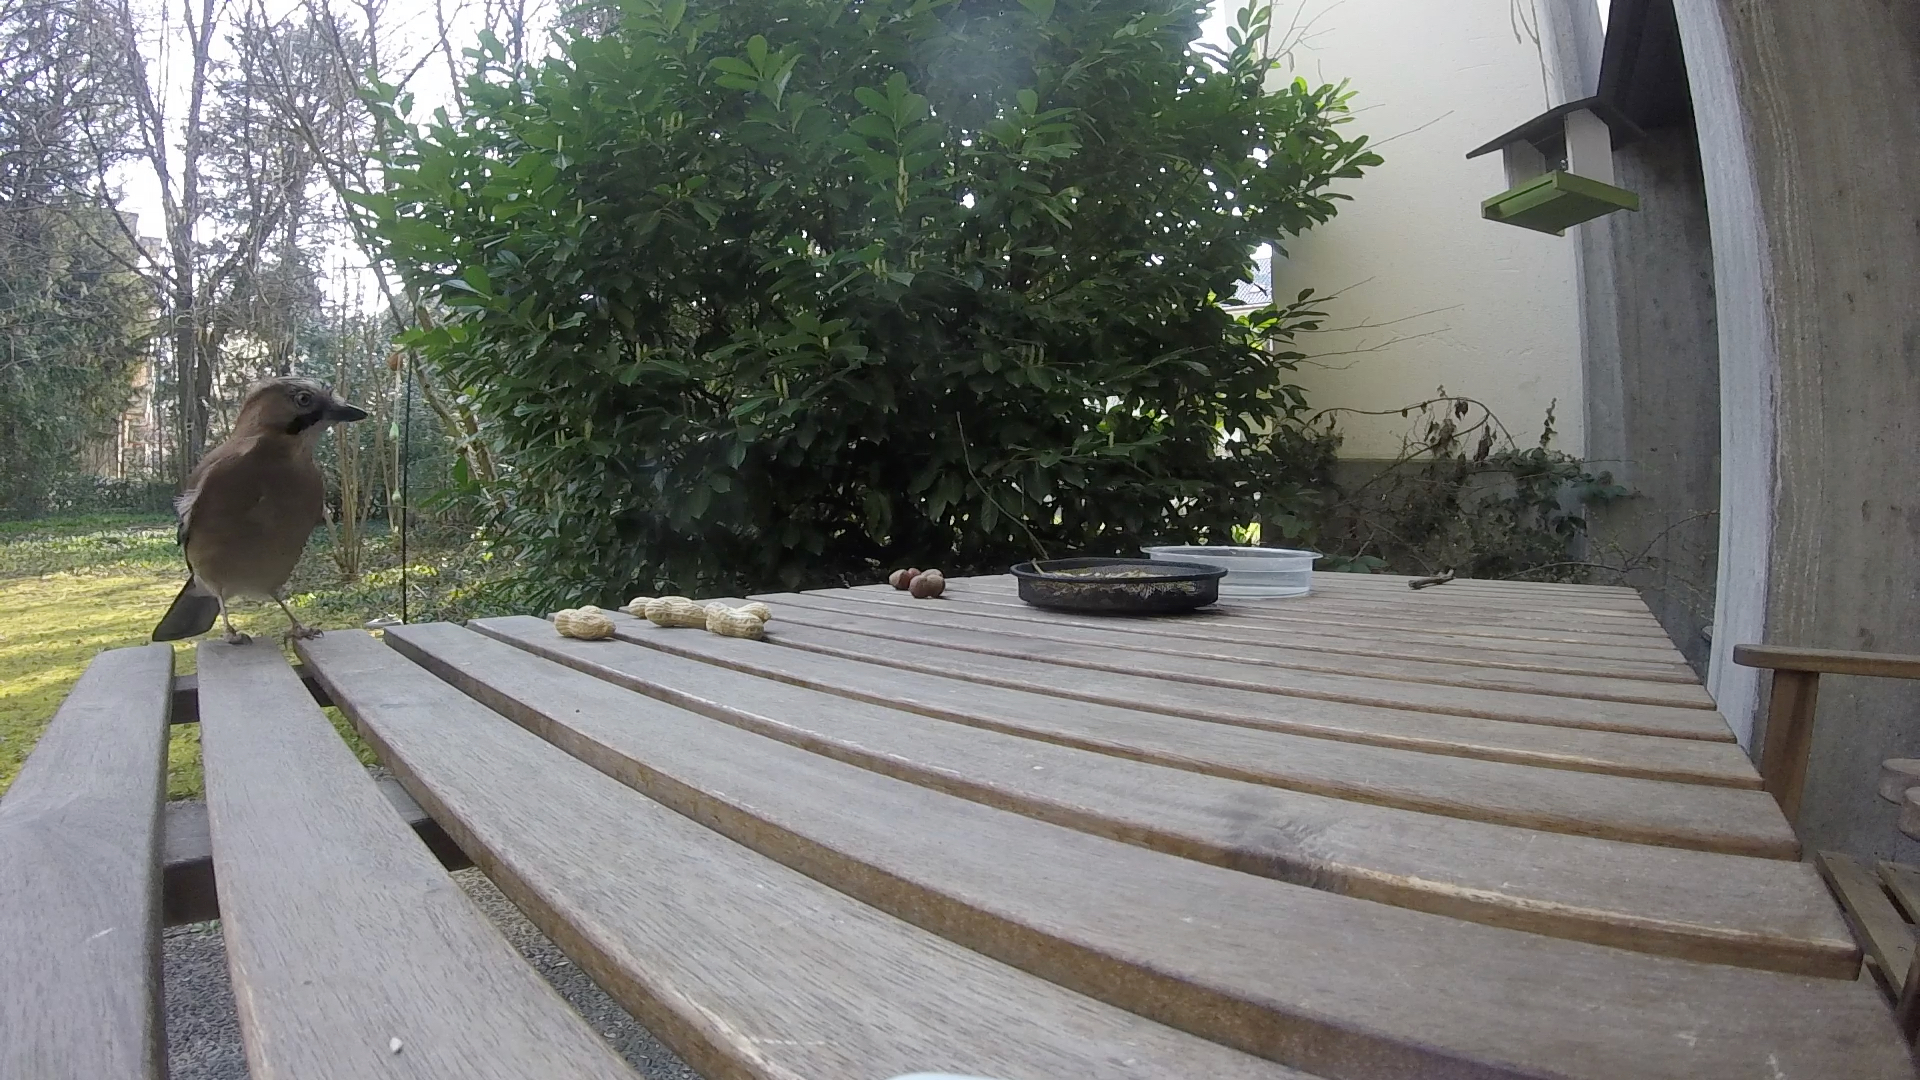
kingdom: Animalia
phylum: Chordata
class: Aves
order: Passeriformes
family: Corvidae
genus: Garrulus
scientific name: Garrulus glandarius
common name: Eurasian jay
